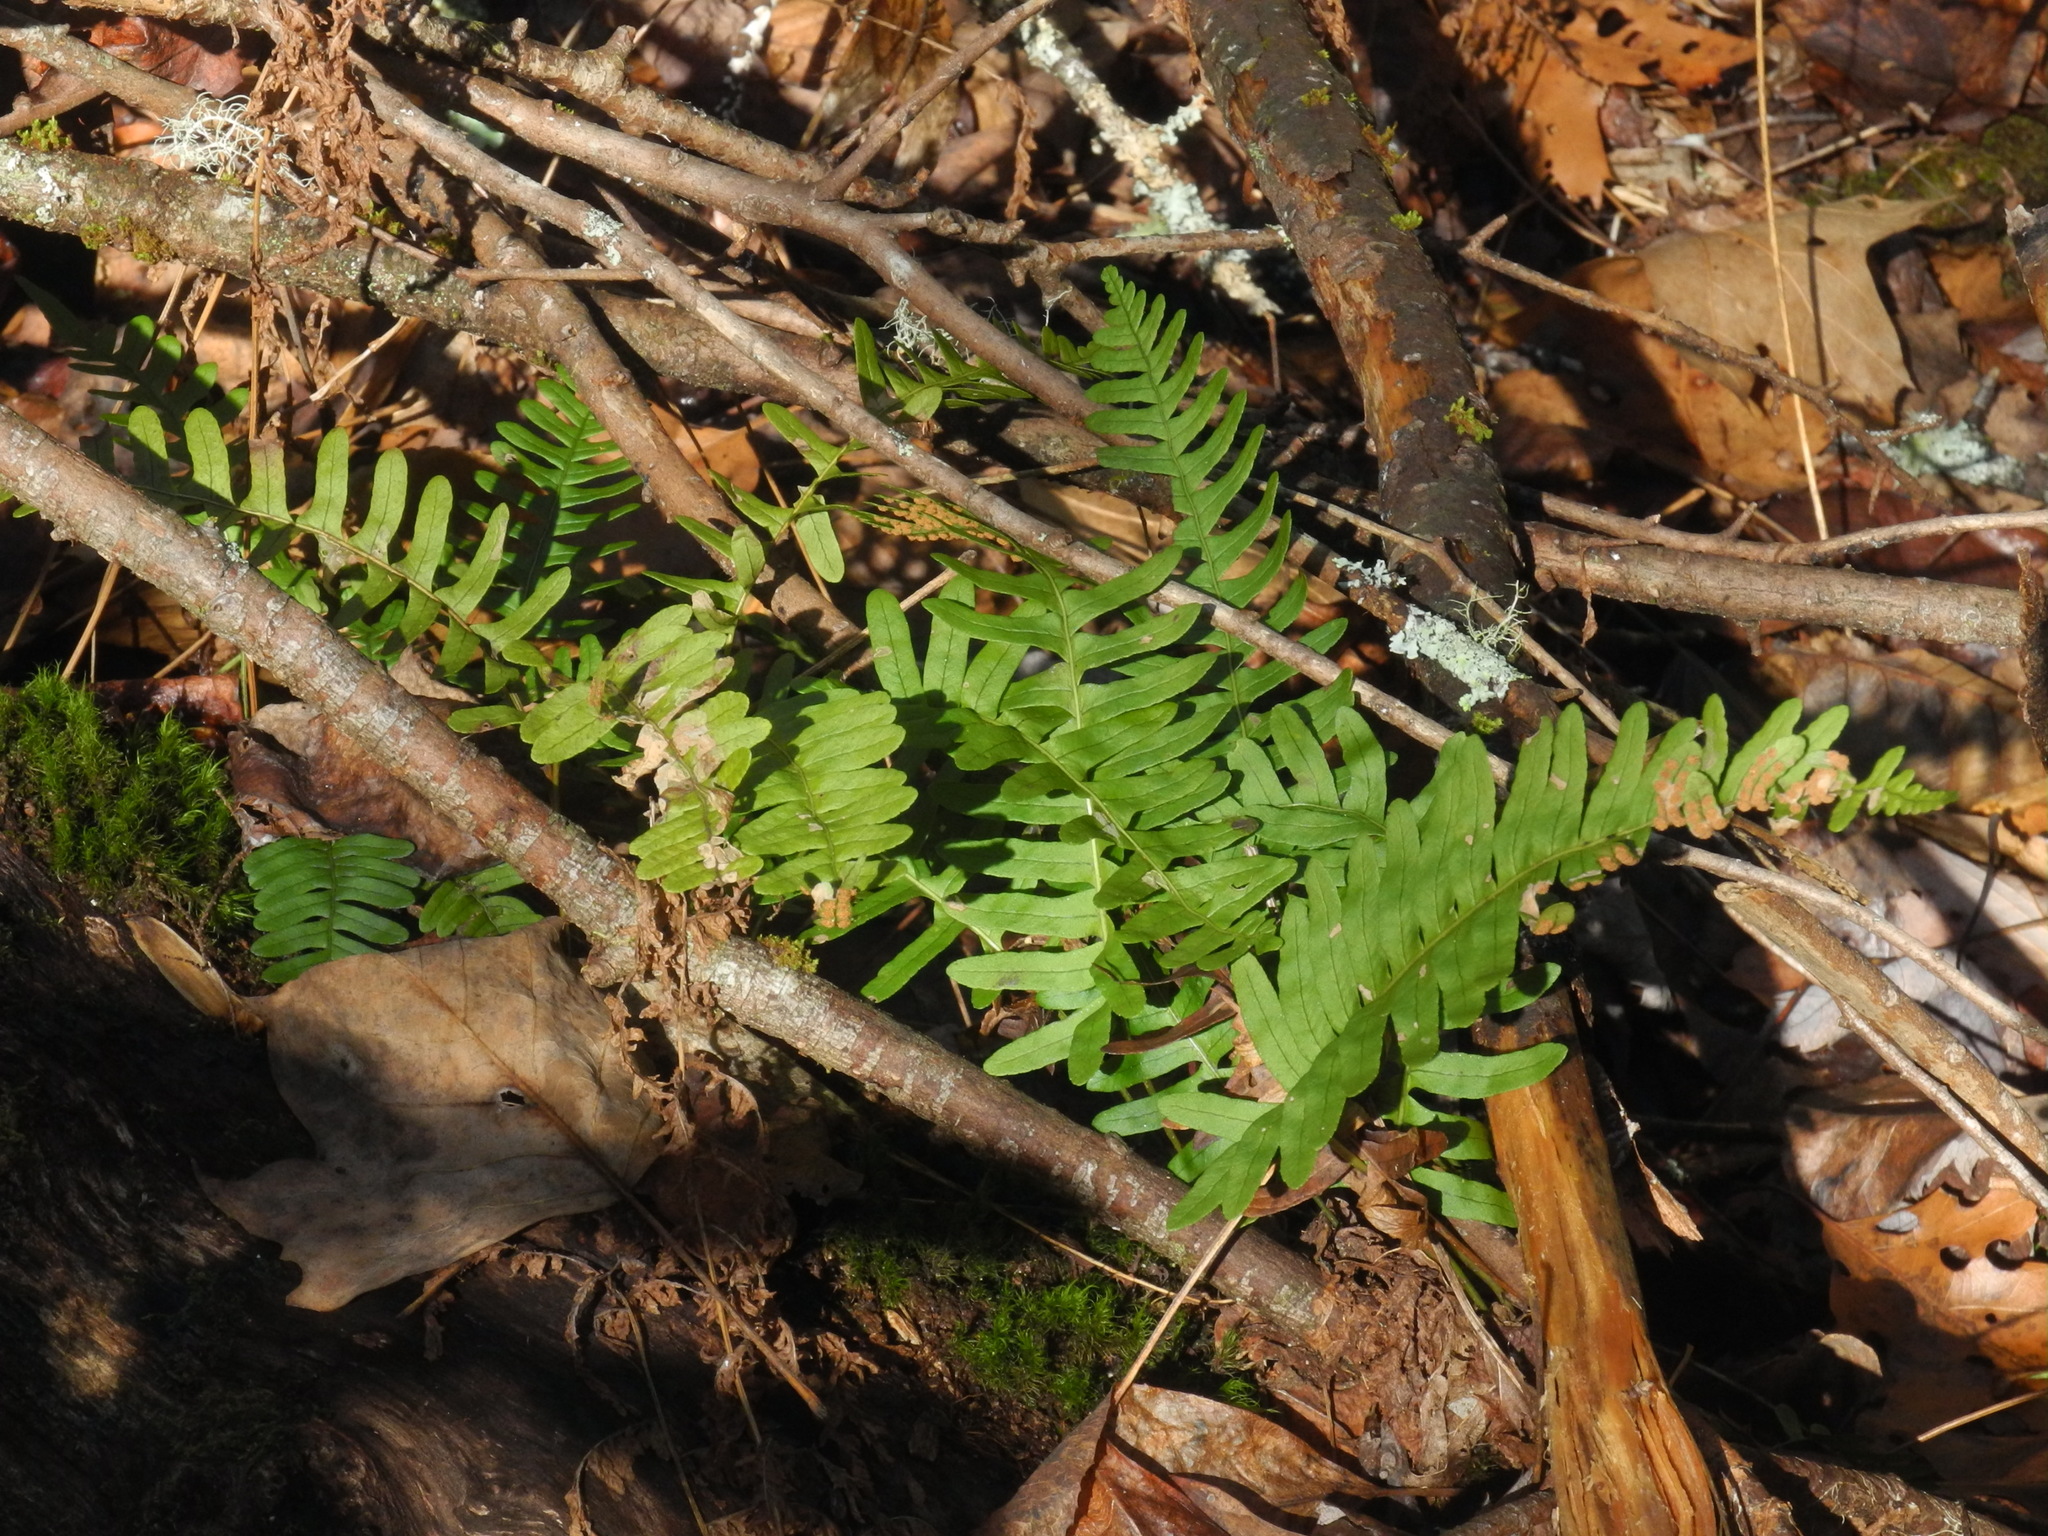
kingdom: Plantae
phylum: Tracheophyta
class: Polypodiopsida
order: Polypodiales
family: Polypodiaceae
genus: Polypodium
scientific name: Polypodium virginianum
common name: American wall fern
